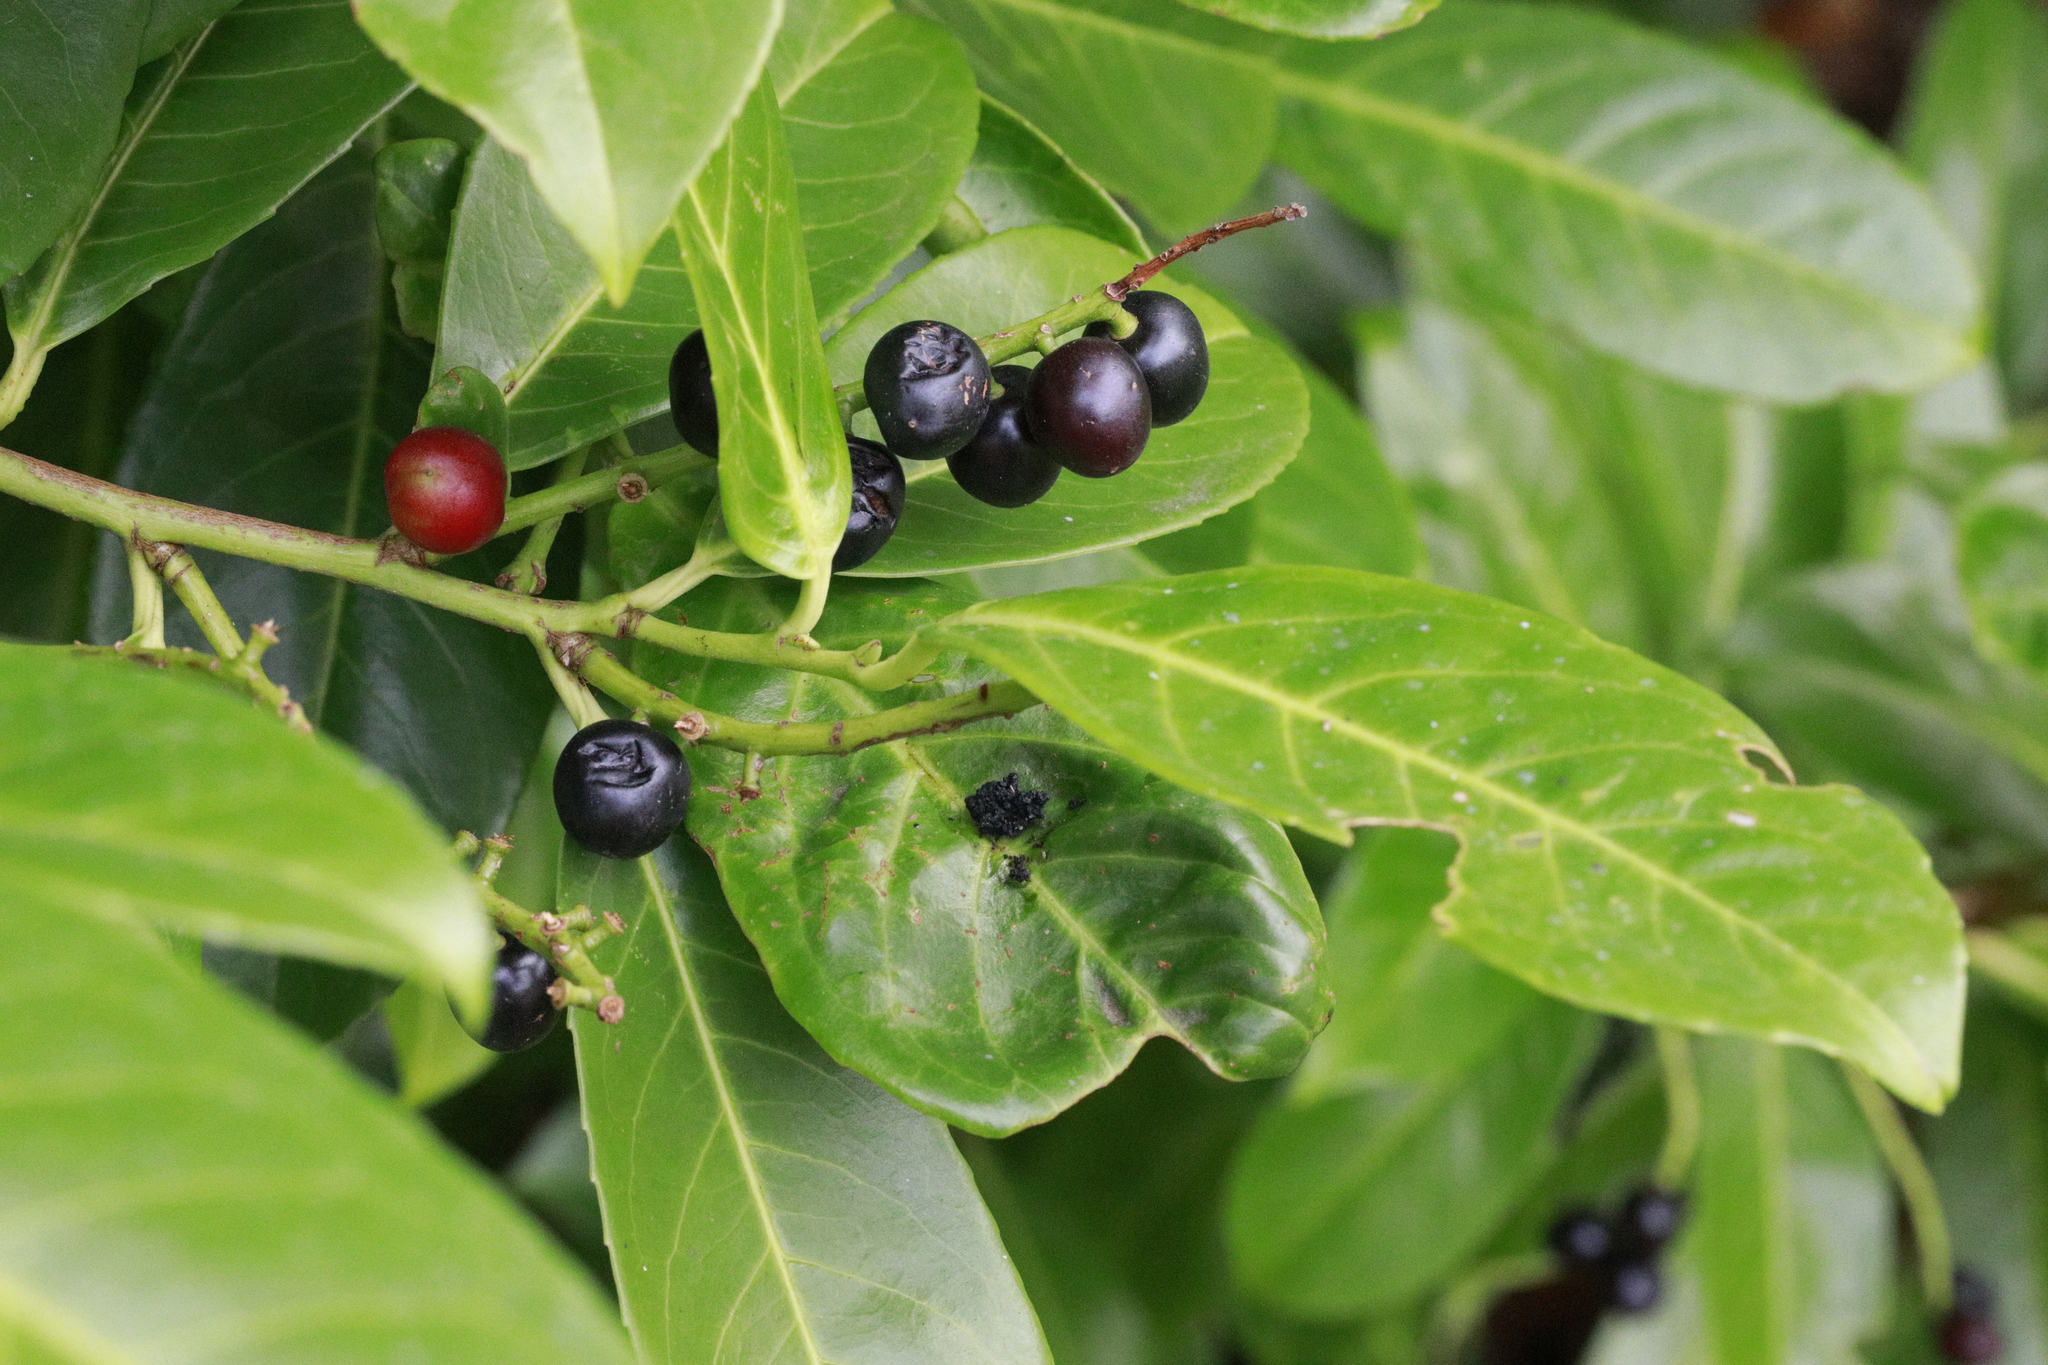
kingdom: Plantae
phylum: Tracheophyta
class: Magnoliopsida
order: Rosales
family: Rosaceae
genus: Prunus
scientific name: Prunus laurocerasus
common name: Cherry laurel
